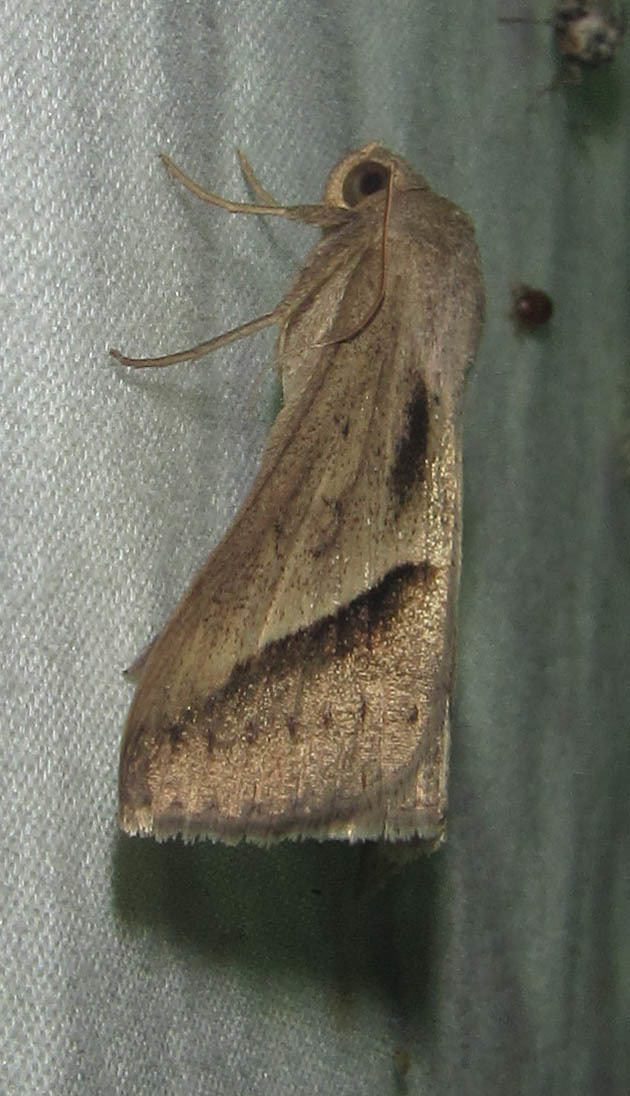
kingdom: Animalia
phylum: Arthropoda
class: Insecta
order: Lepidoptera
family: Erebidae
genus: Mocis
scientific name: Mocis proverai
